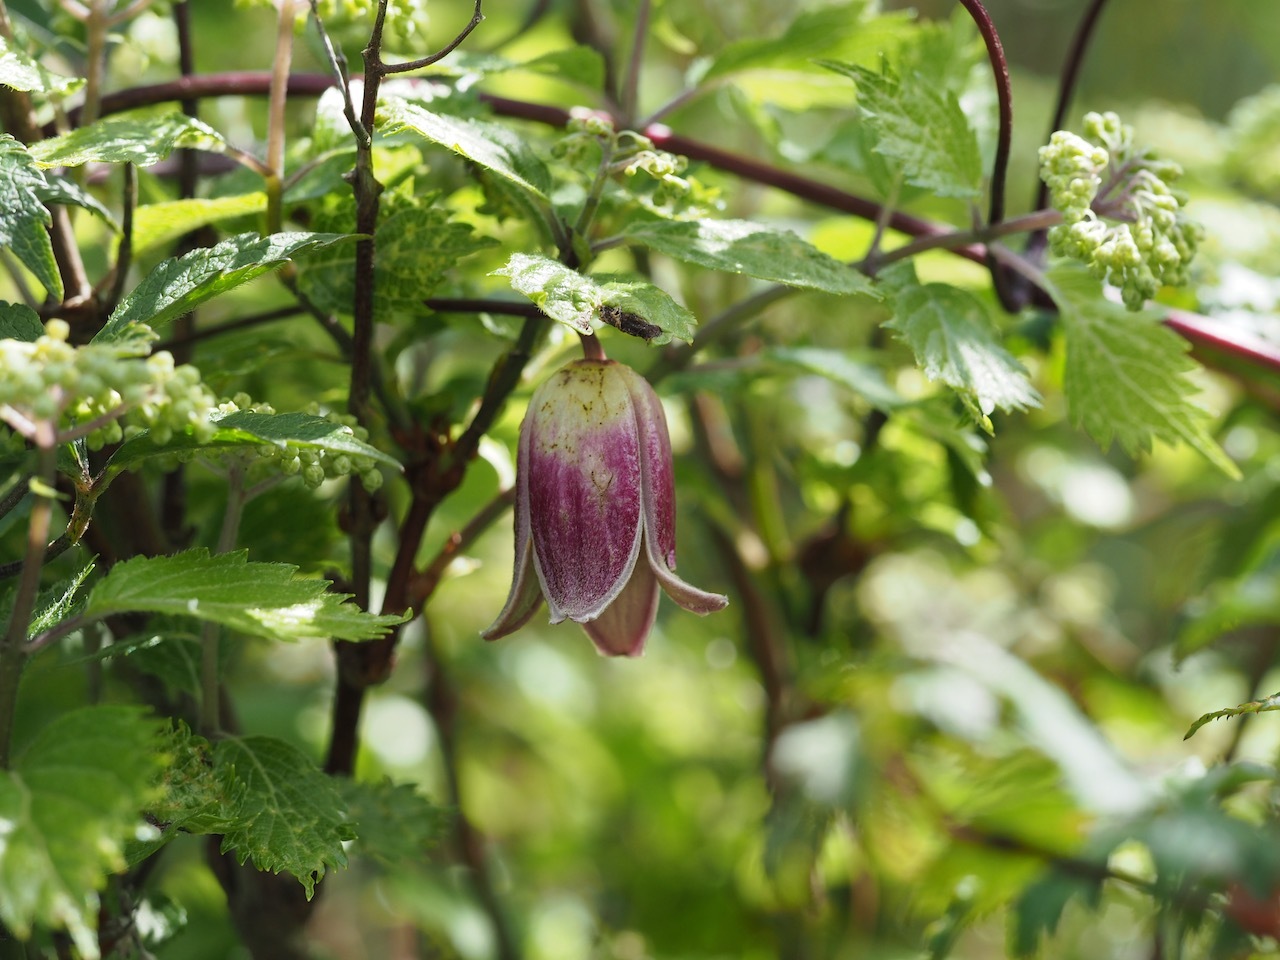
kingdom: Plantae
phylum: Tracheophyta
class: Magnoliopsida
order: Ranunculales
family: Ranunculaceae
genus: Clematis
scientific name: Clematis japonica
